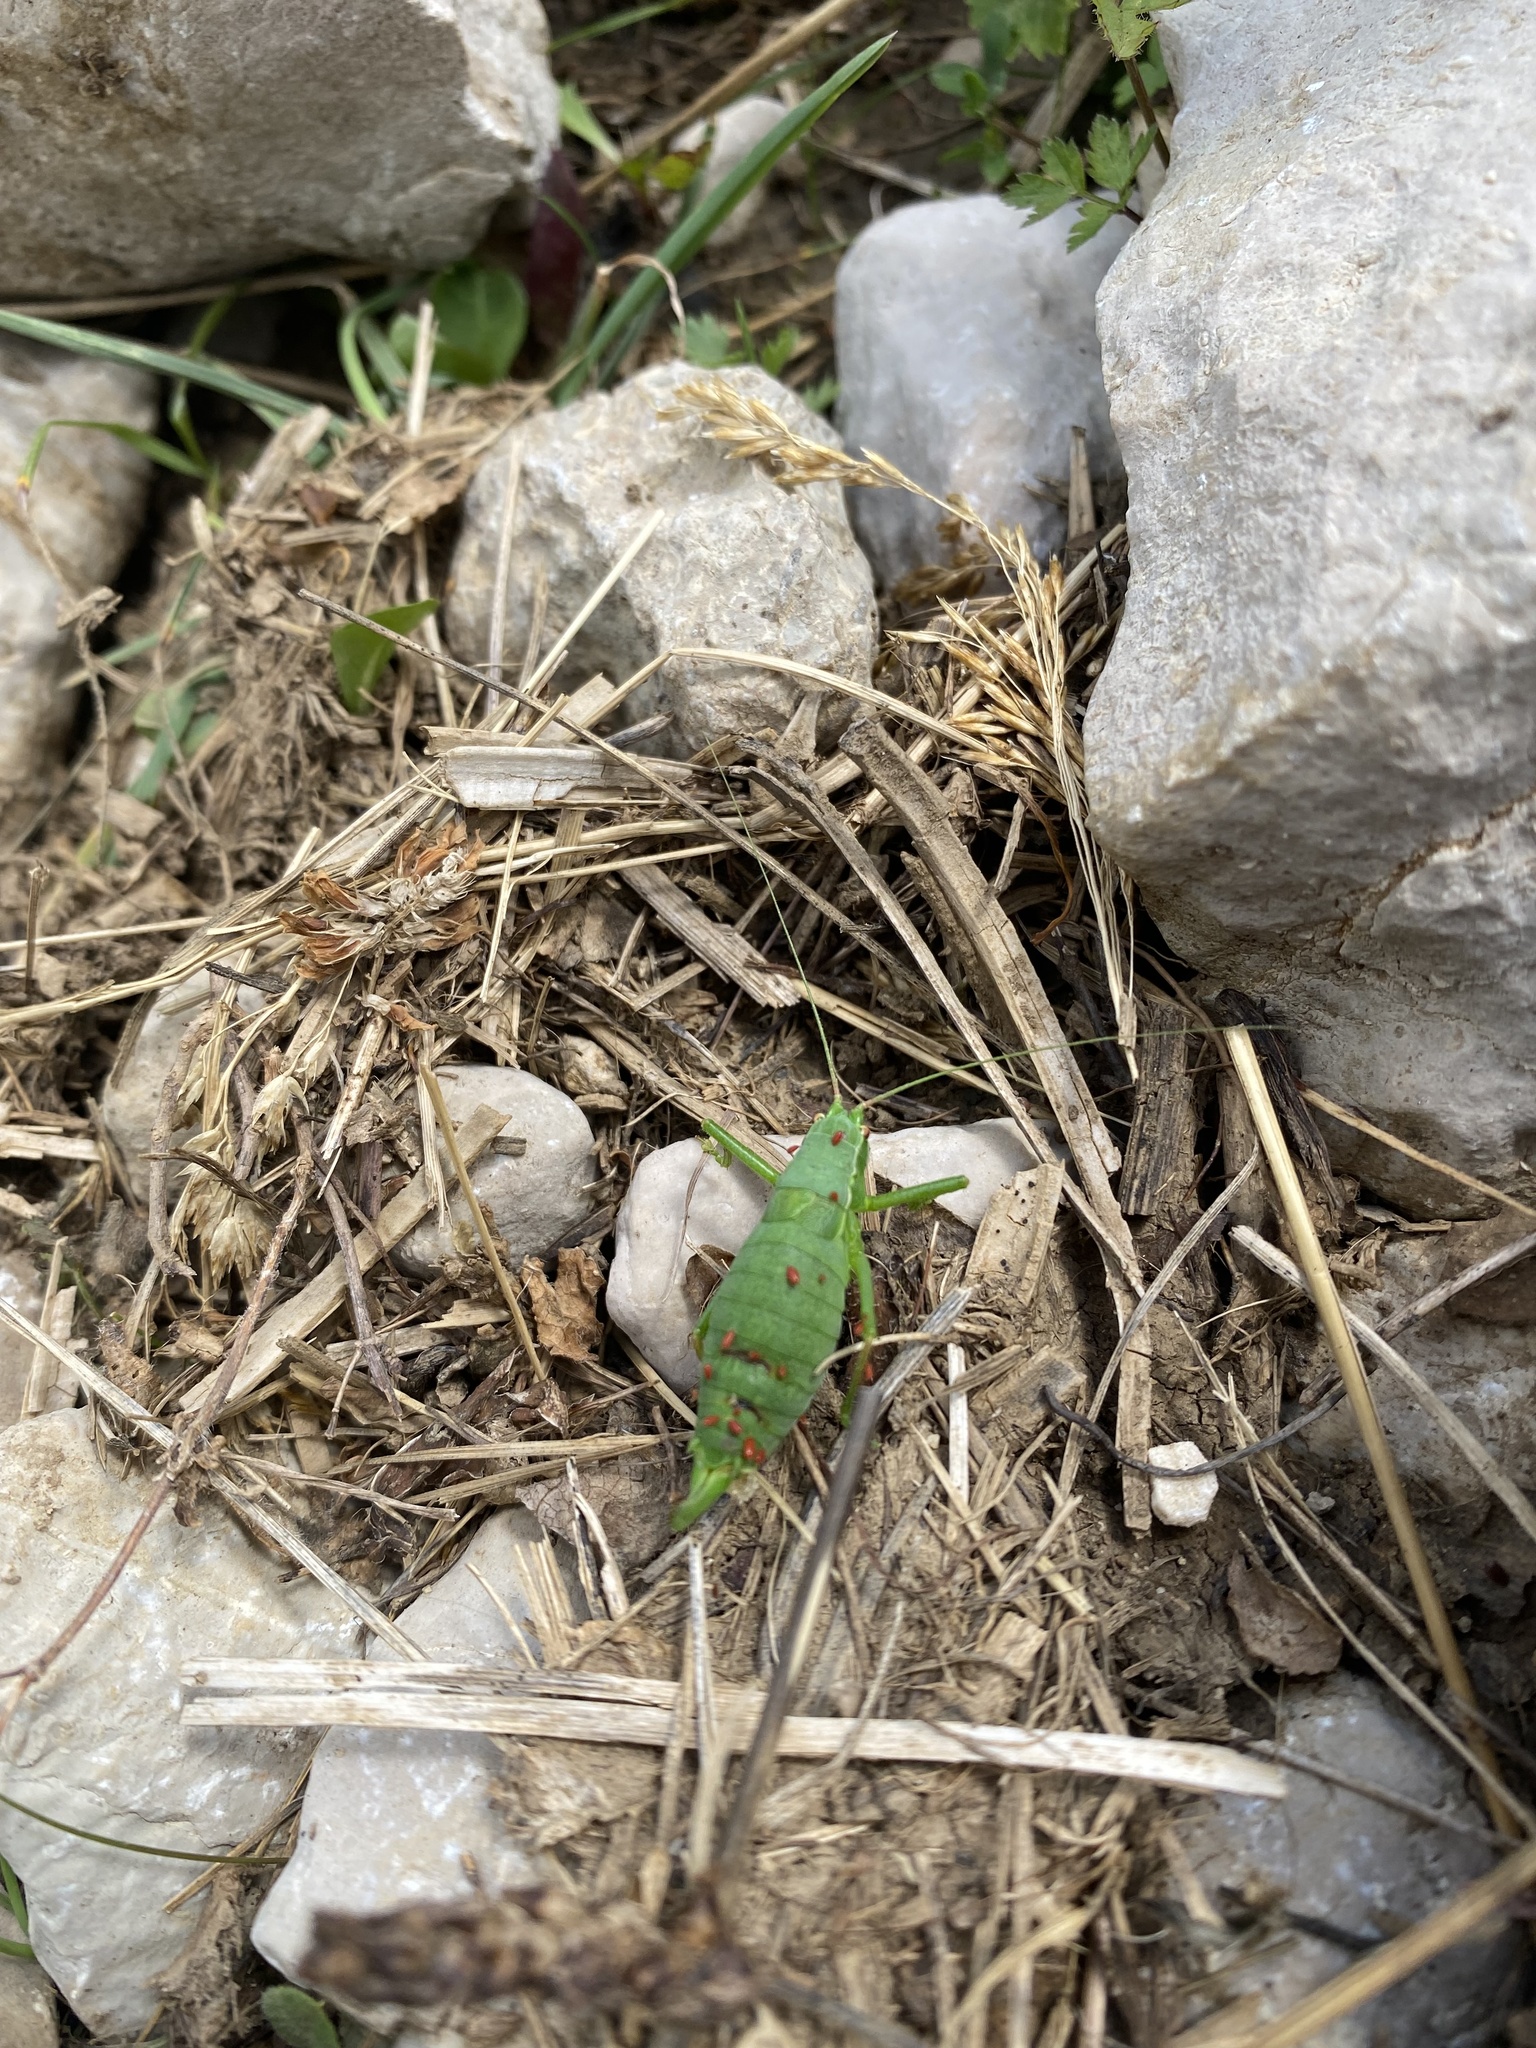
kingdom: Animalia
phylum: Arthropoda
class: Insecta
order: Orthoptera
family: Tettigoniidae
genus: Isophya
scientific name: Isophya
